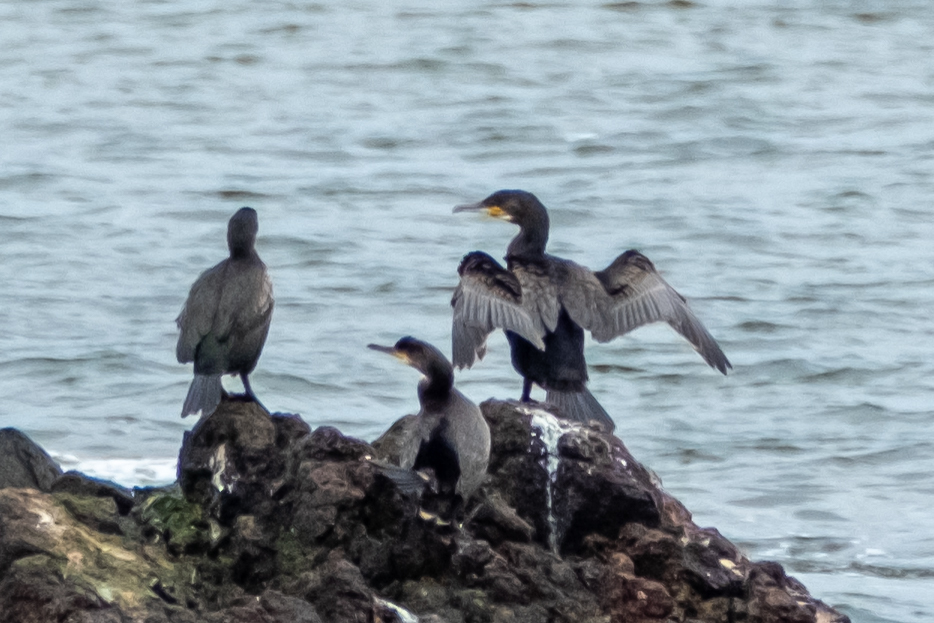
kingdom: Animalia
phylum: Chordata
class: Aves
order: Suliformes
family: Phalacrocoracidae
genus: Phalacrocorax
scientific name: Phalacrocorax carbo
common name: Great cormorant
